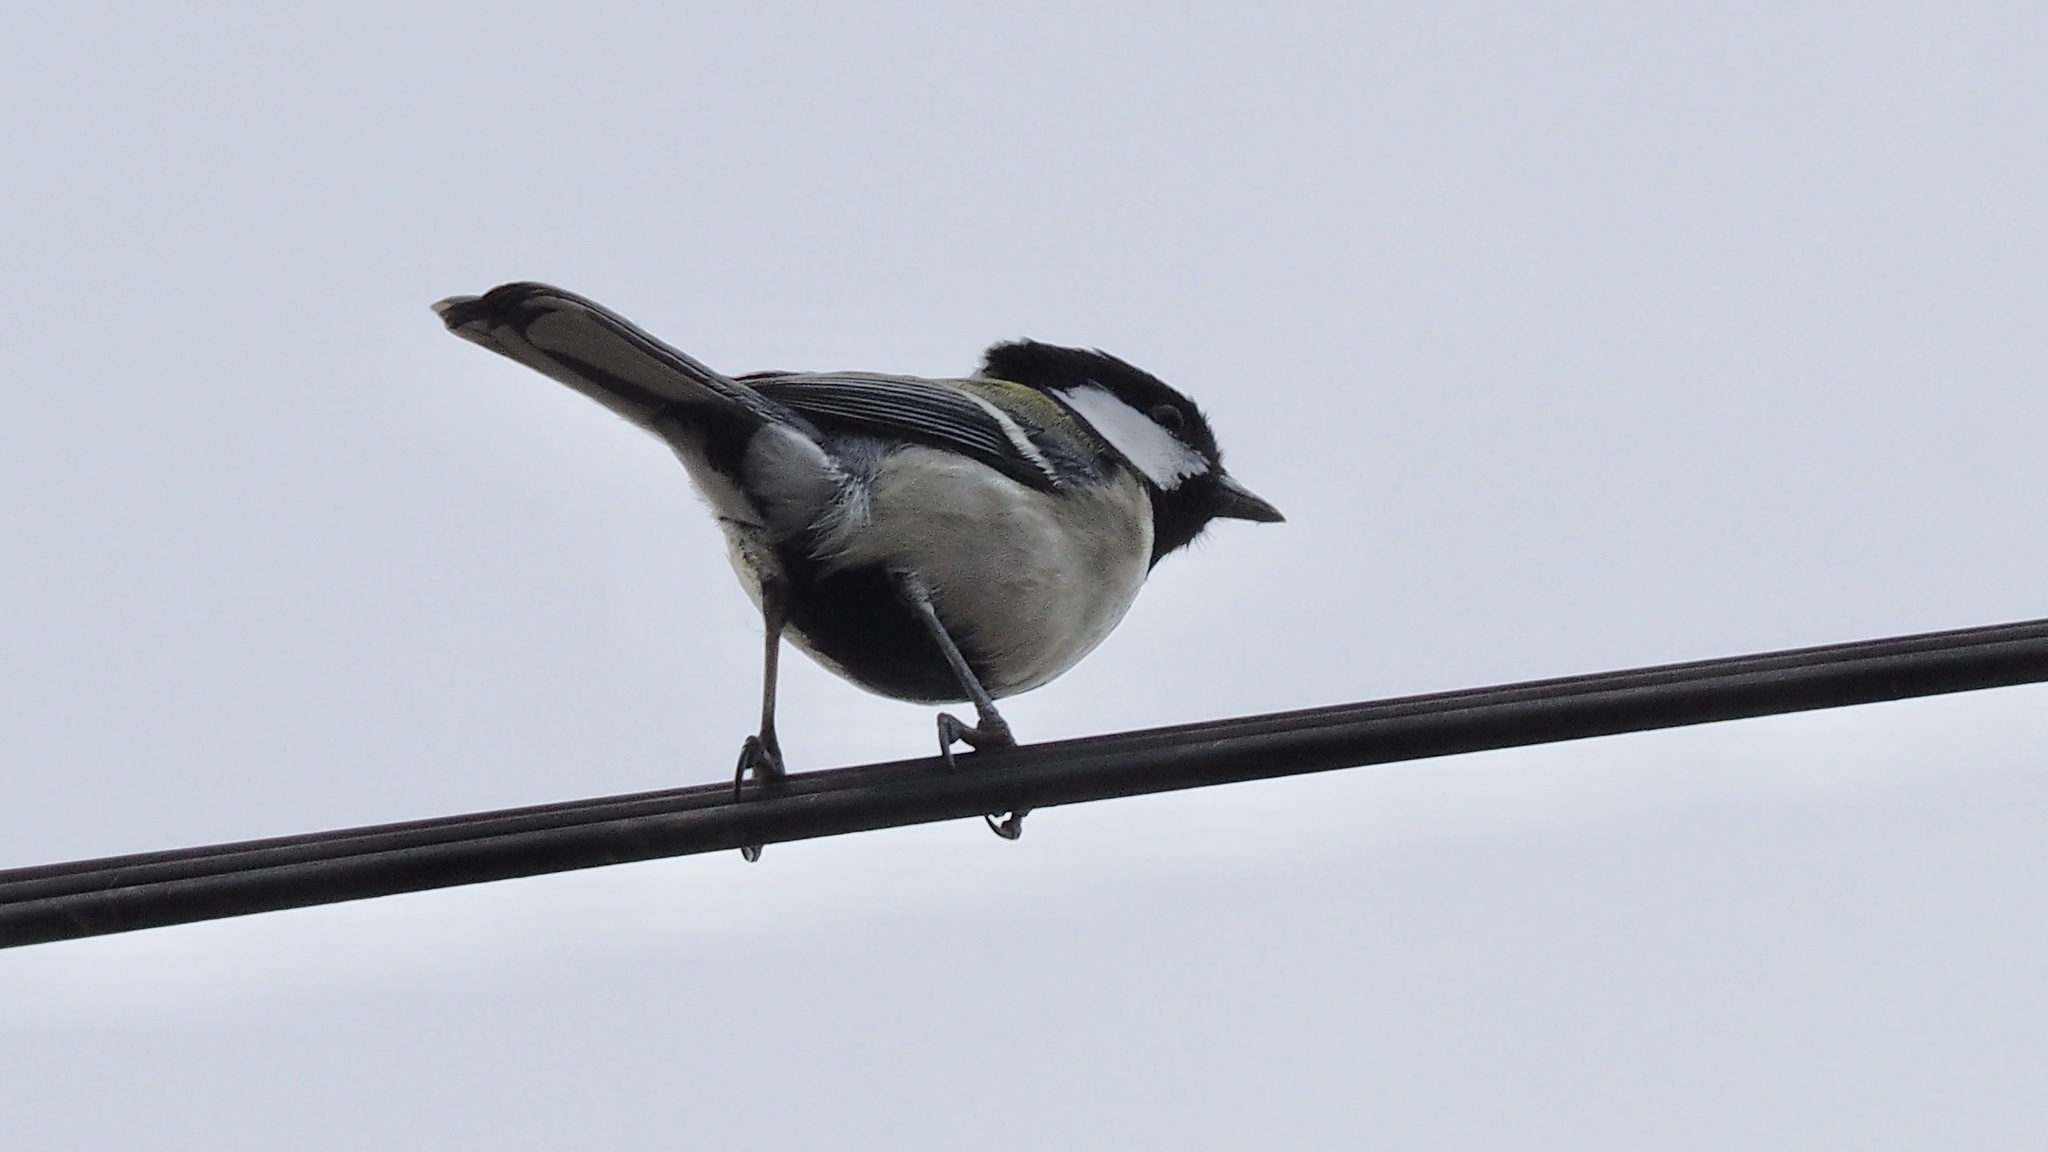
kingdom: Animalia
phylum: Chordata
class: Aves
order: Passeriformes
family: Paridae
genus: Parus
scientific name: Parus minor
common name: Japanese tit
